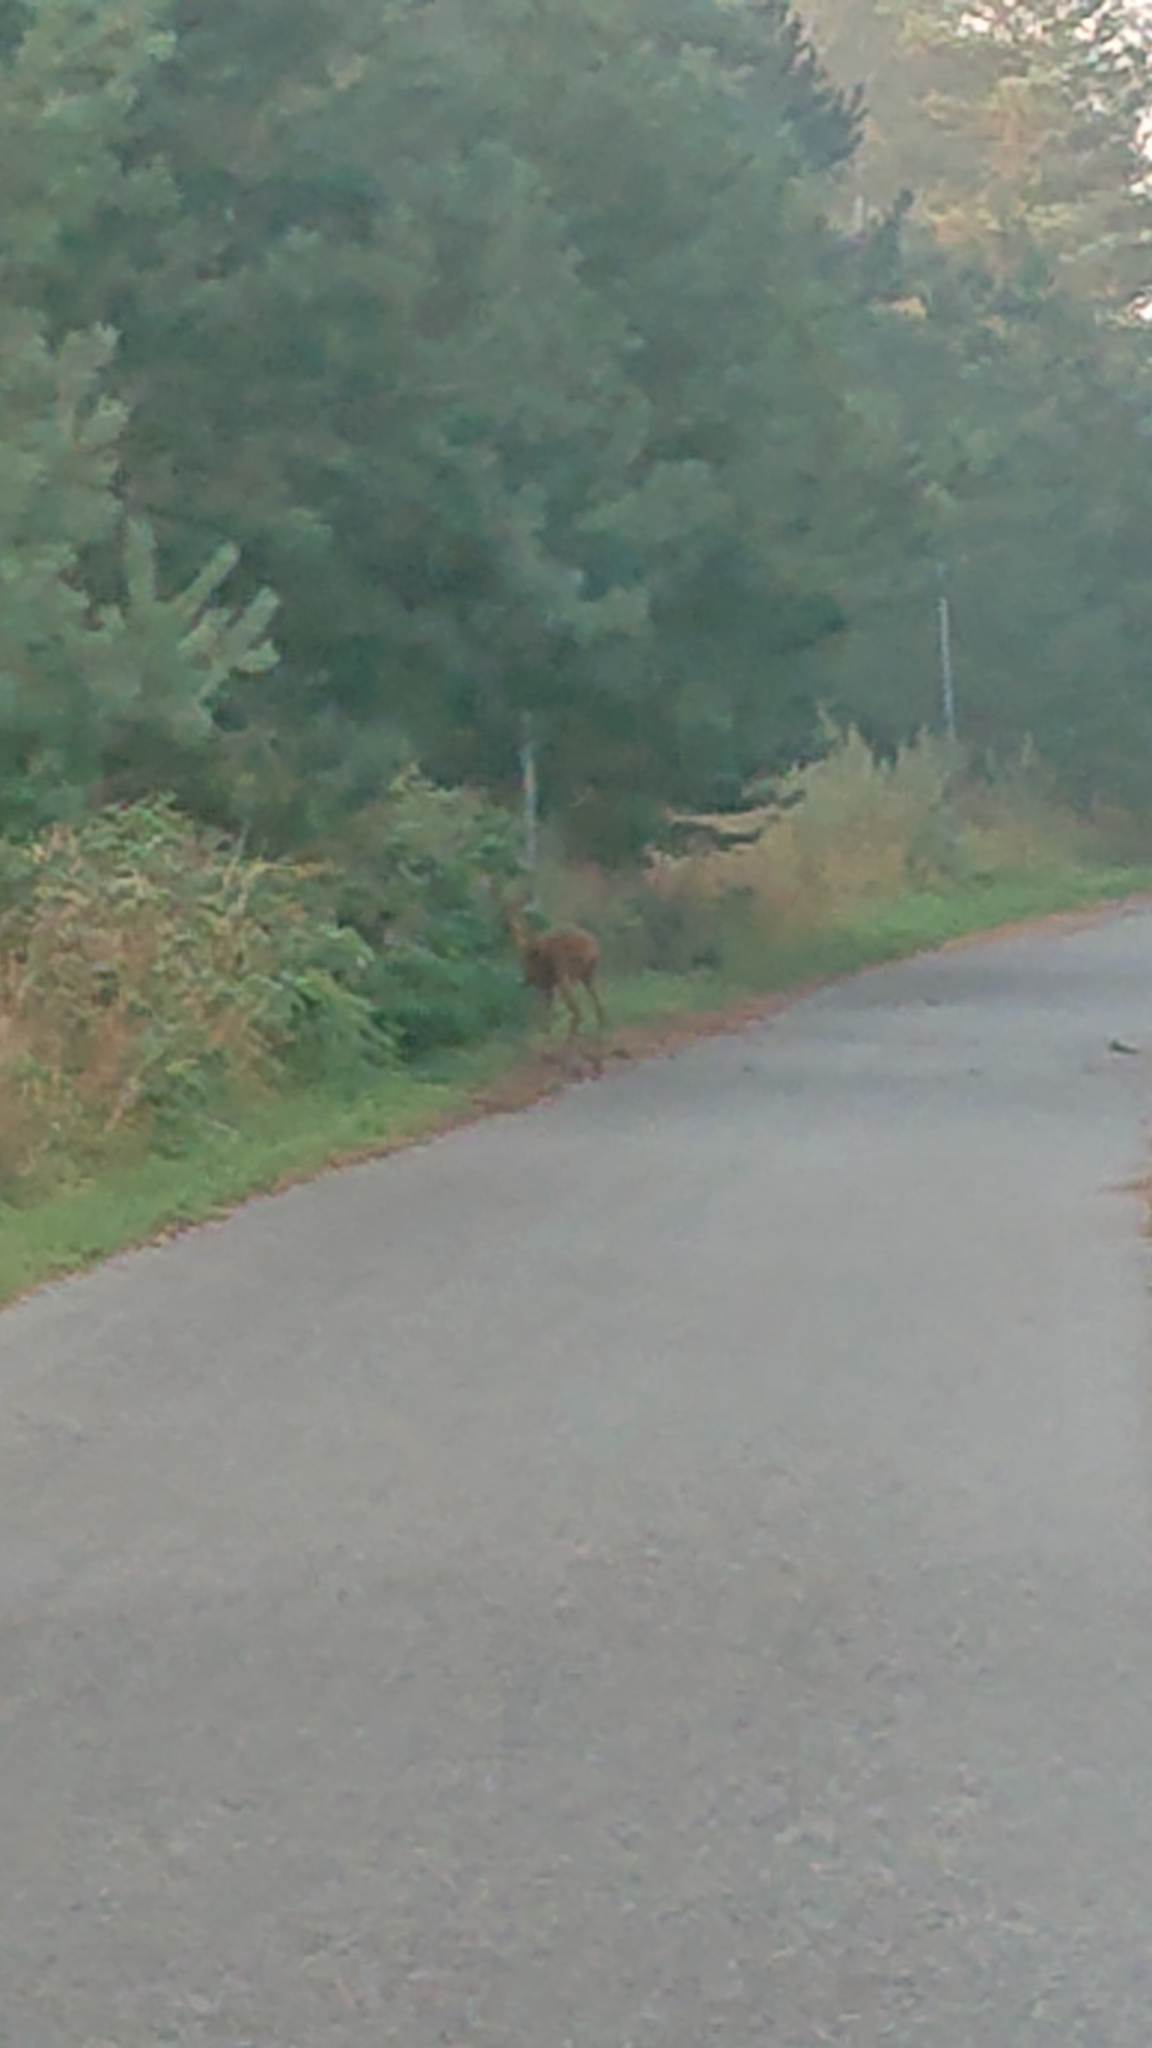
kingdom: Animalia
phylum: Chordata
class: Mammalia
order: Artiodactyla
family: Cervidae
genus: Capreolus
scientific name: Capreolus capreolus
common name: Western roe deer
